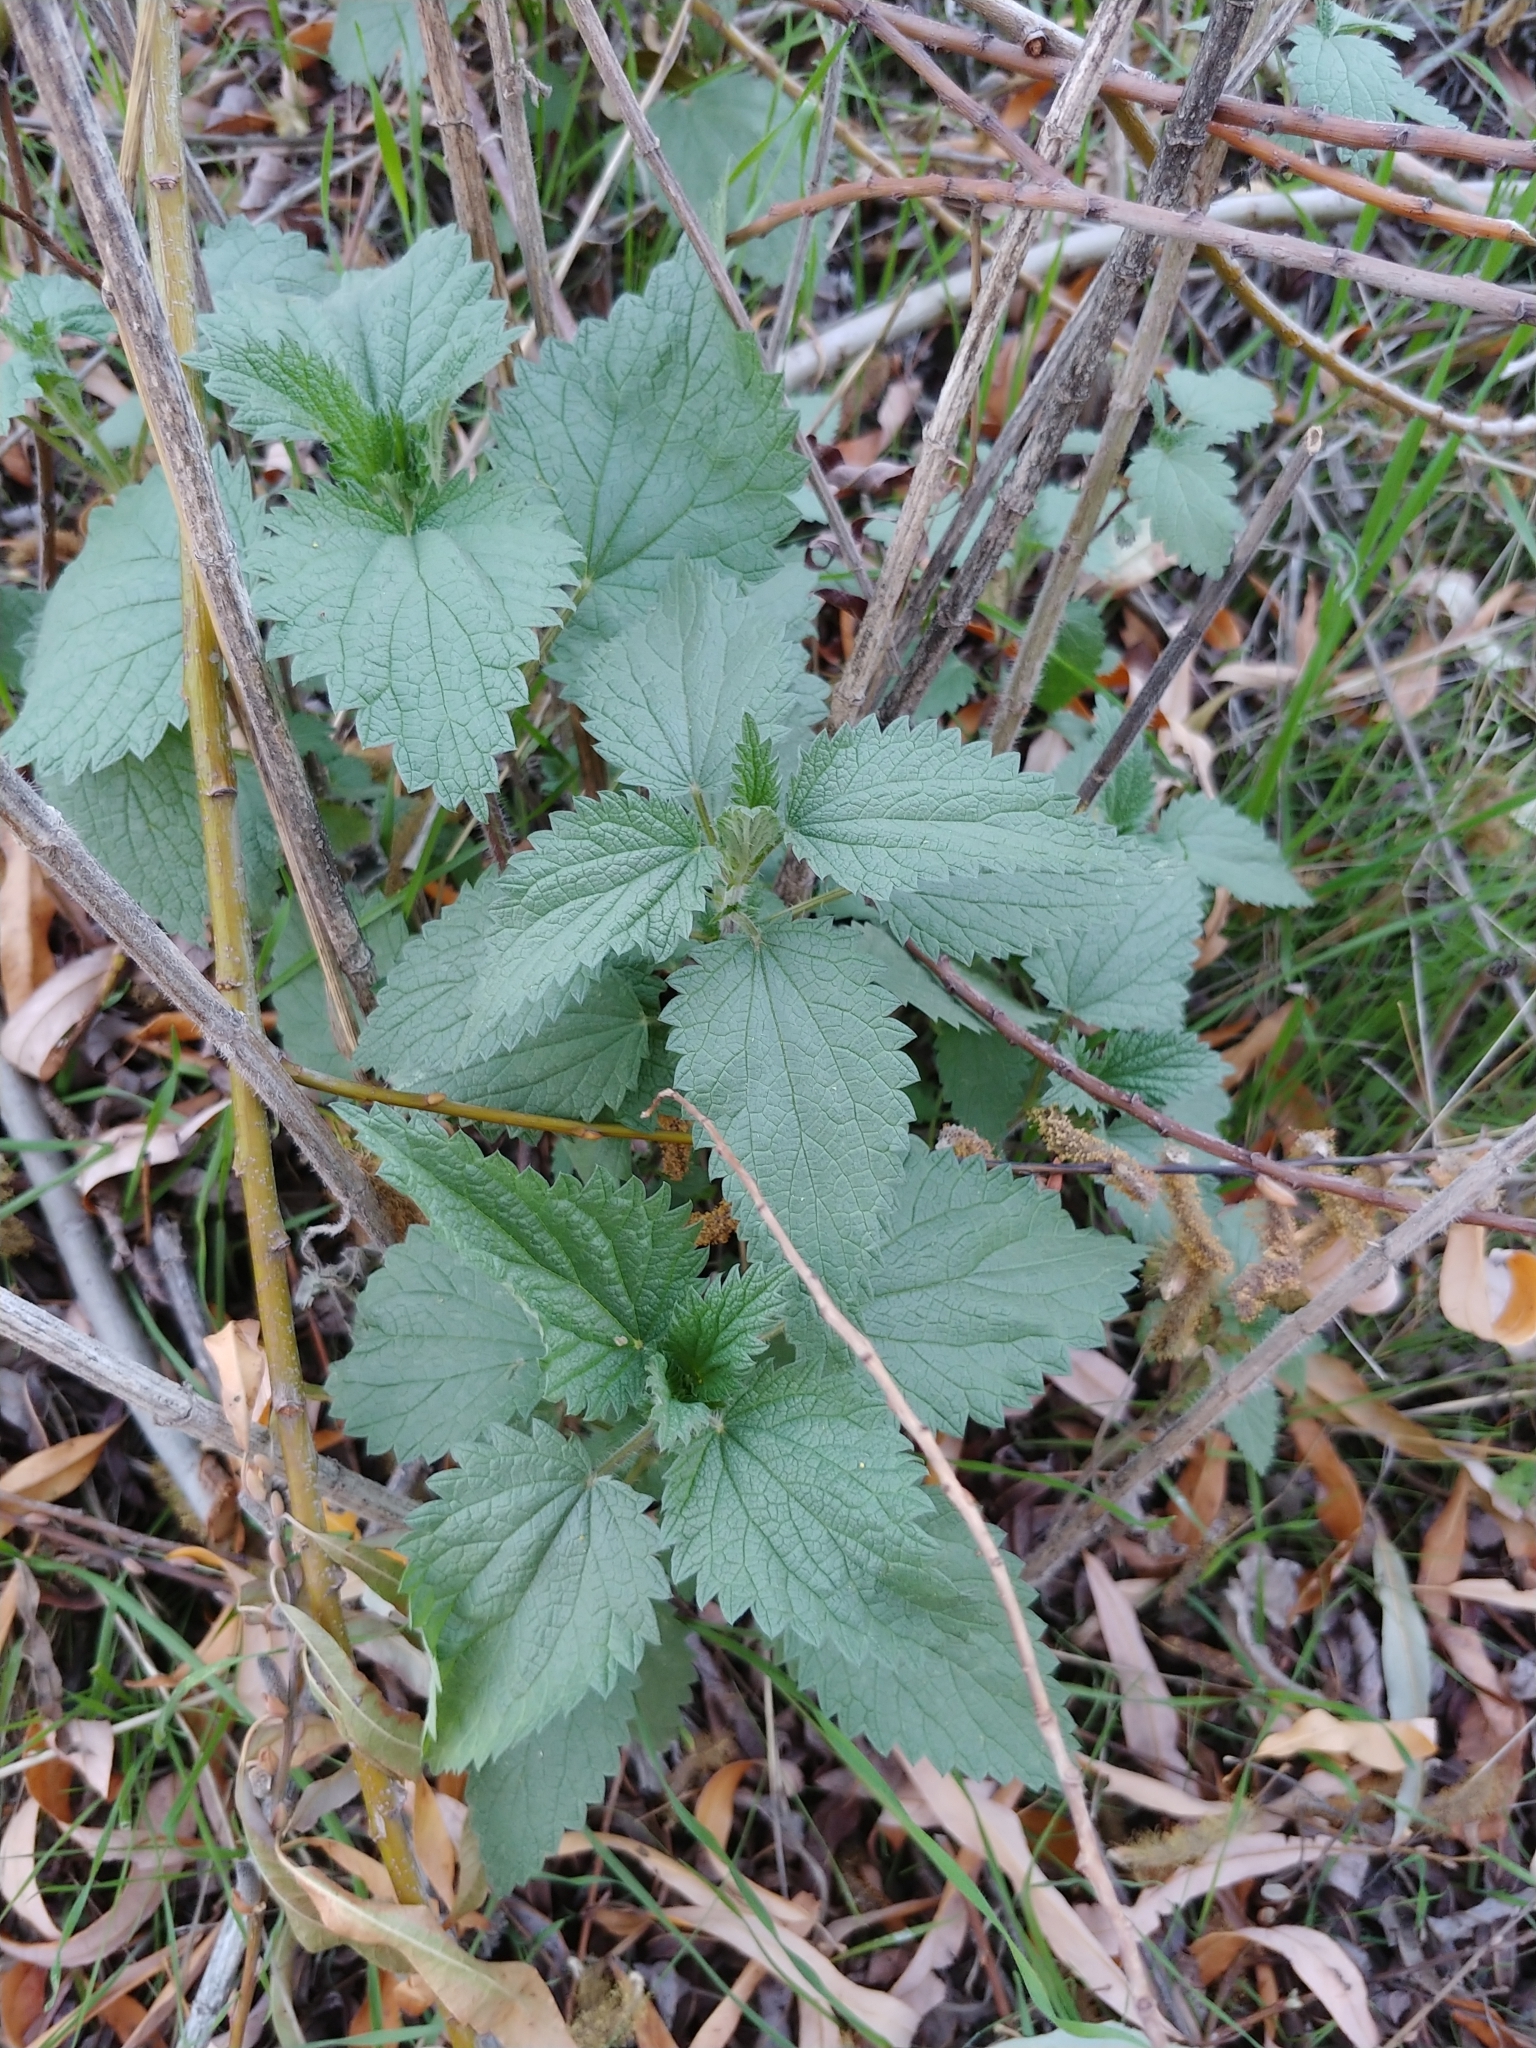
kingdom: Plantae
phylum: Tracheophyta
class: Magnoliopsida
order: Rosales
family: Urticaceae
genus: Urtica
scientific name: Urtica dioica
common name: Common nettle
